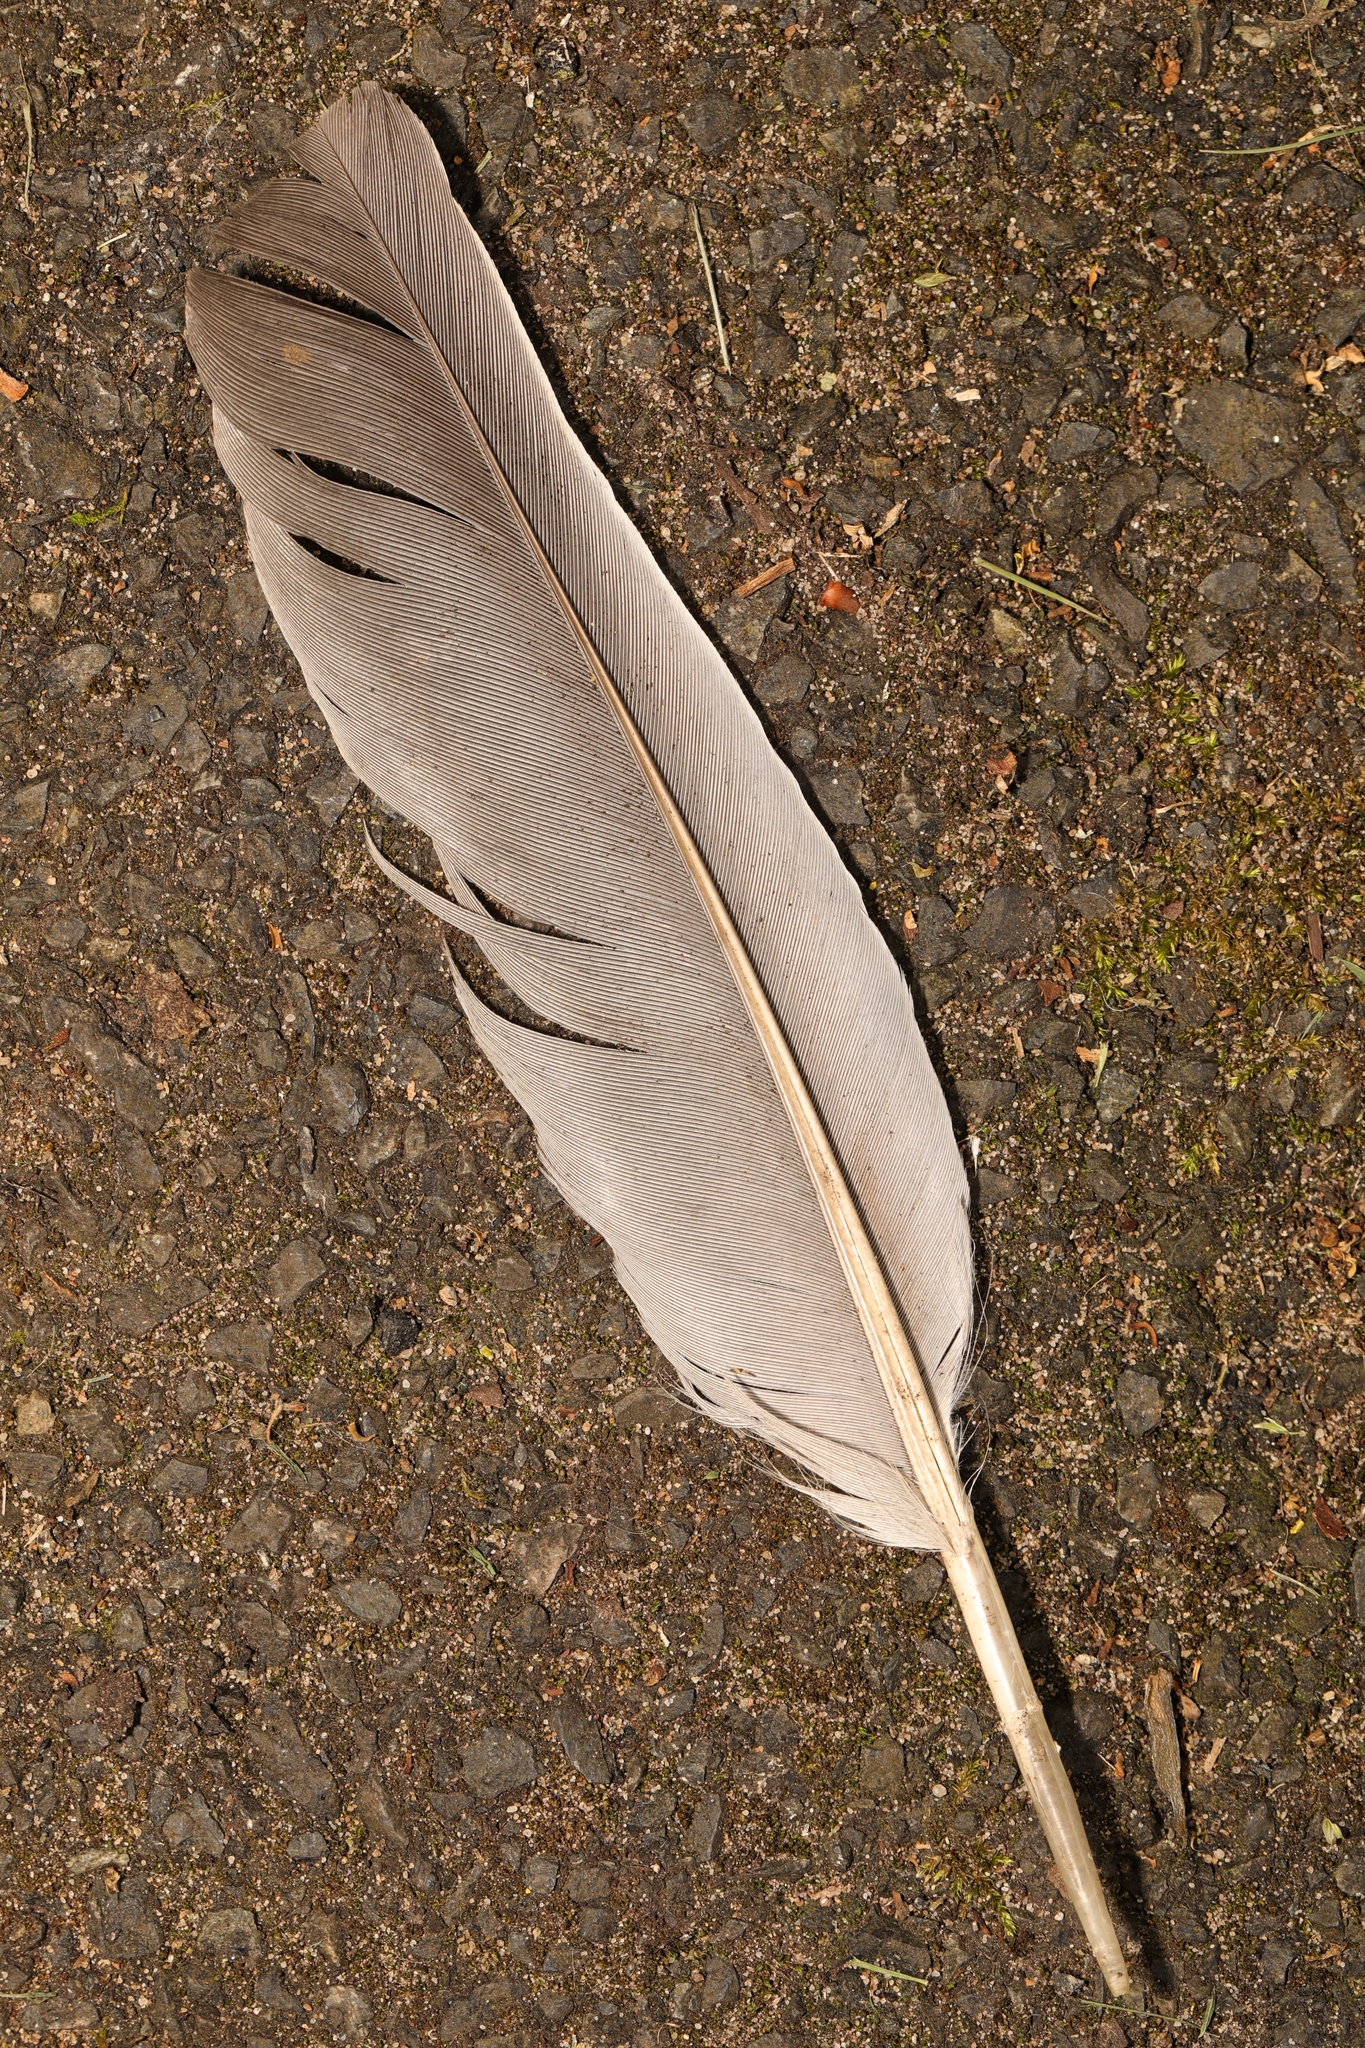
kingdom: Animalia
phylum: Chordata
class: Aves
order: Columbiformes
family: Columbidae
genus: Columba
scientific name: Columba palumbus
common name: Common wood pigeon
